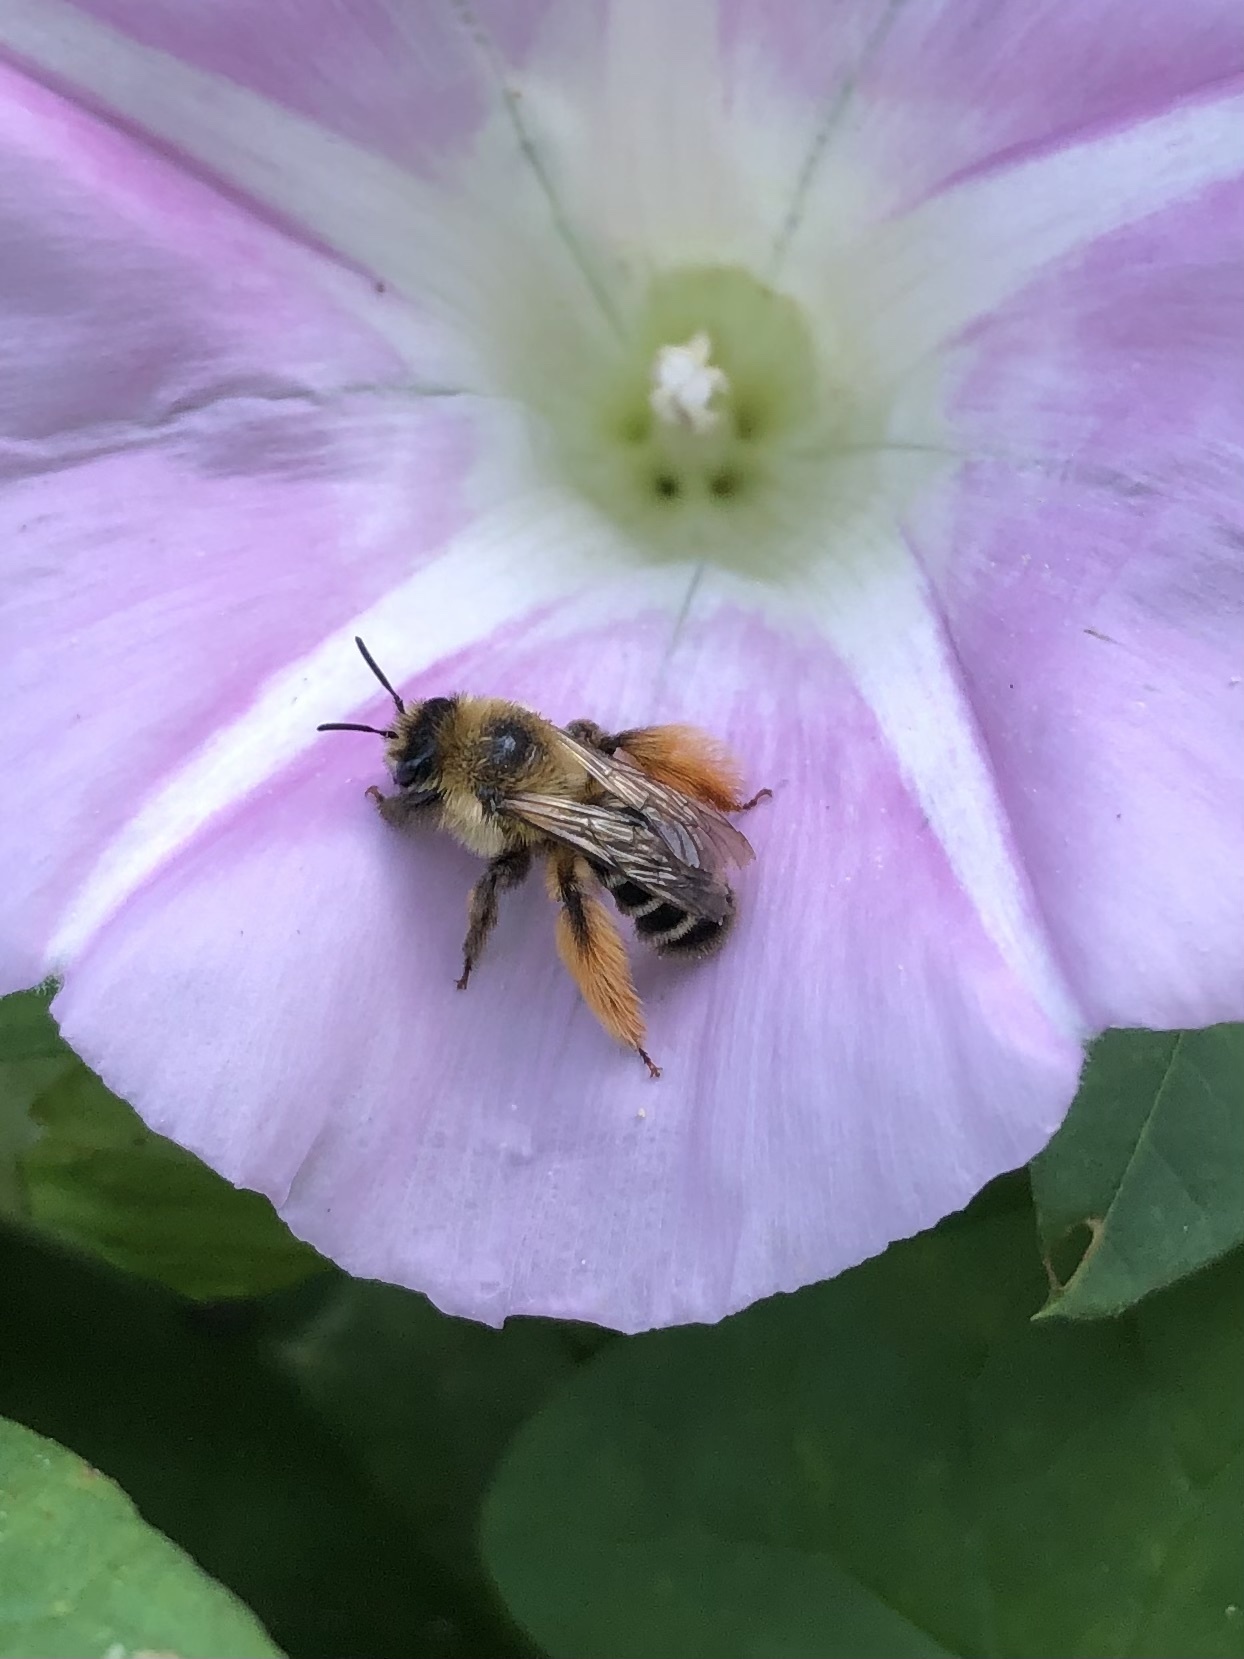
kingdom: Animalia
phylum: Arthropoda
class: Insecta
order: Hymenoptera
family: Melittidae
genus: Dasypoda
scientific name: Dasypoda hirtipes
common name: Pantaloon bee
